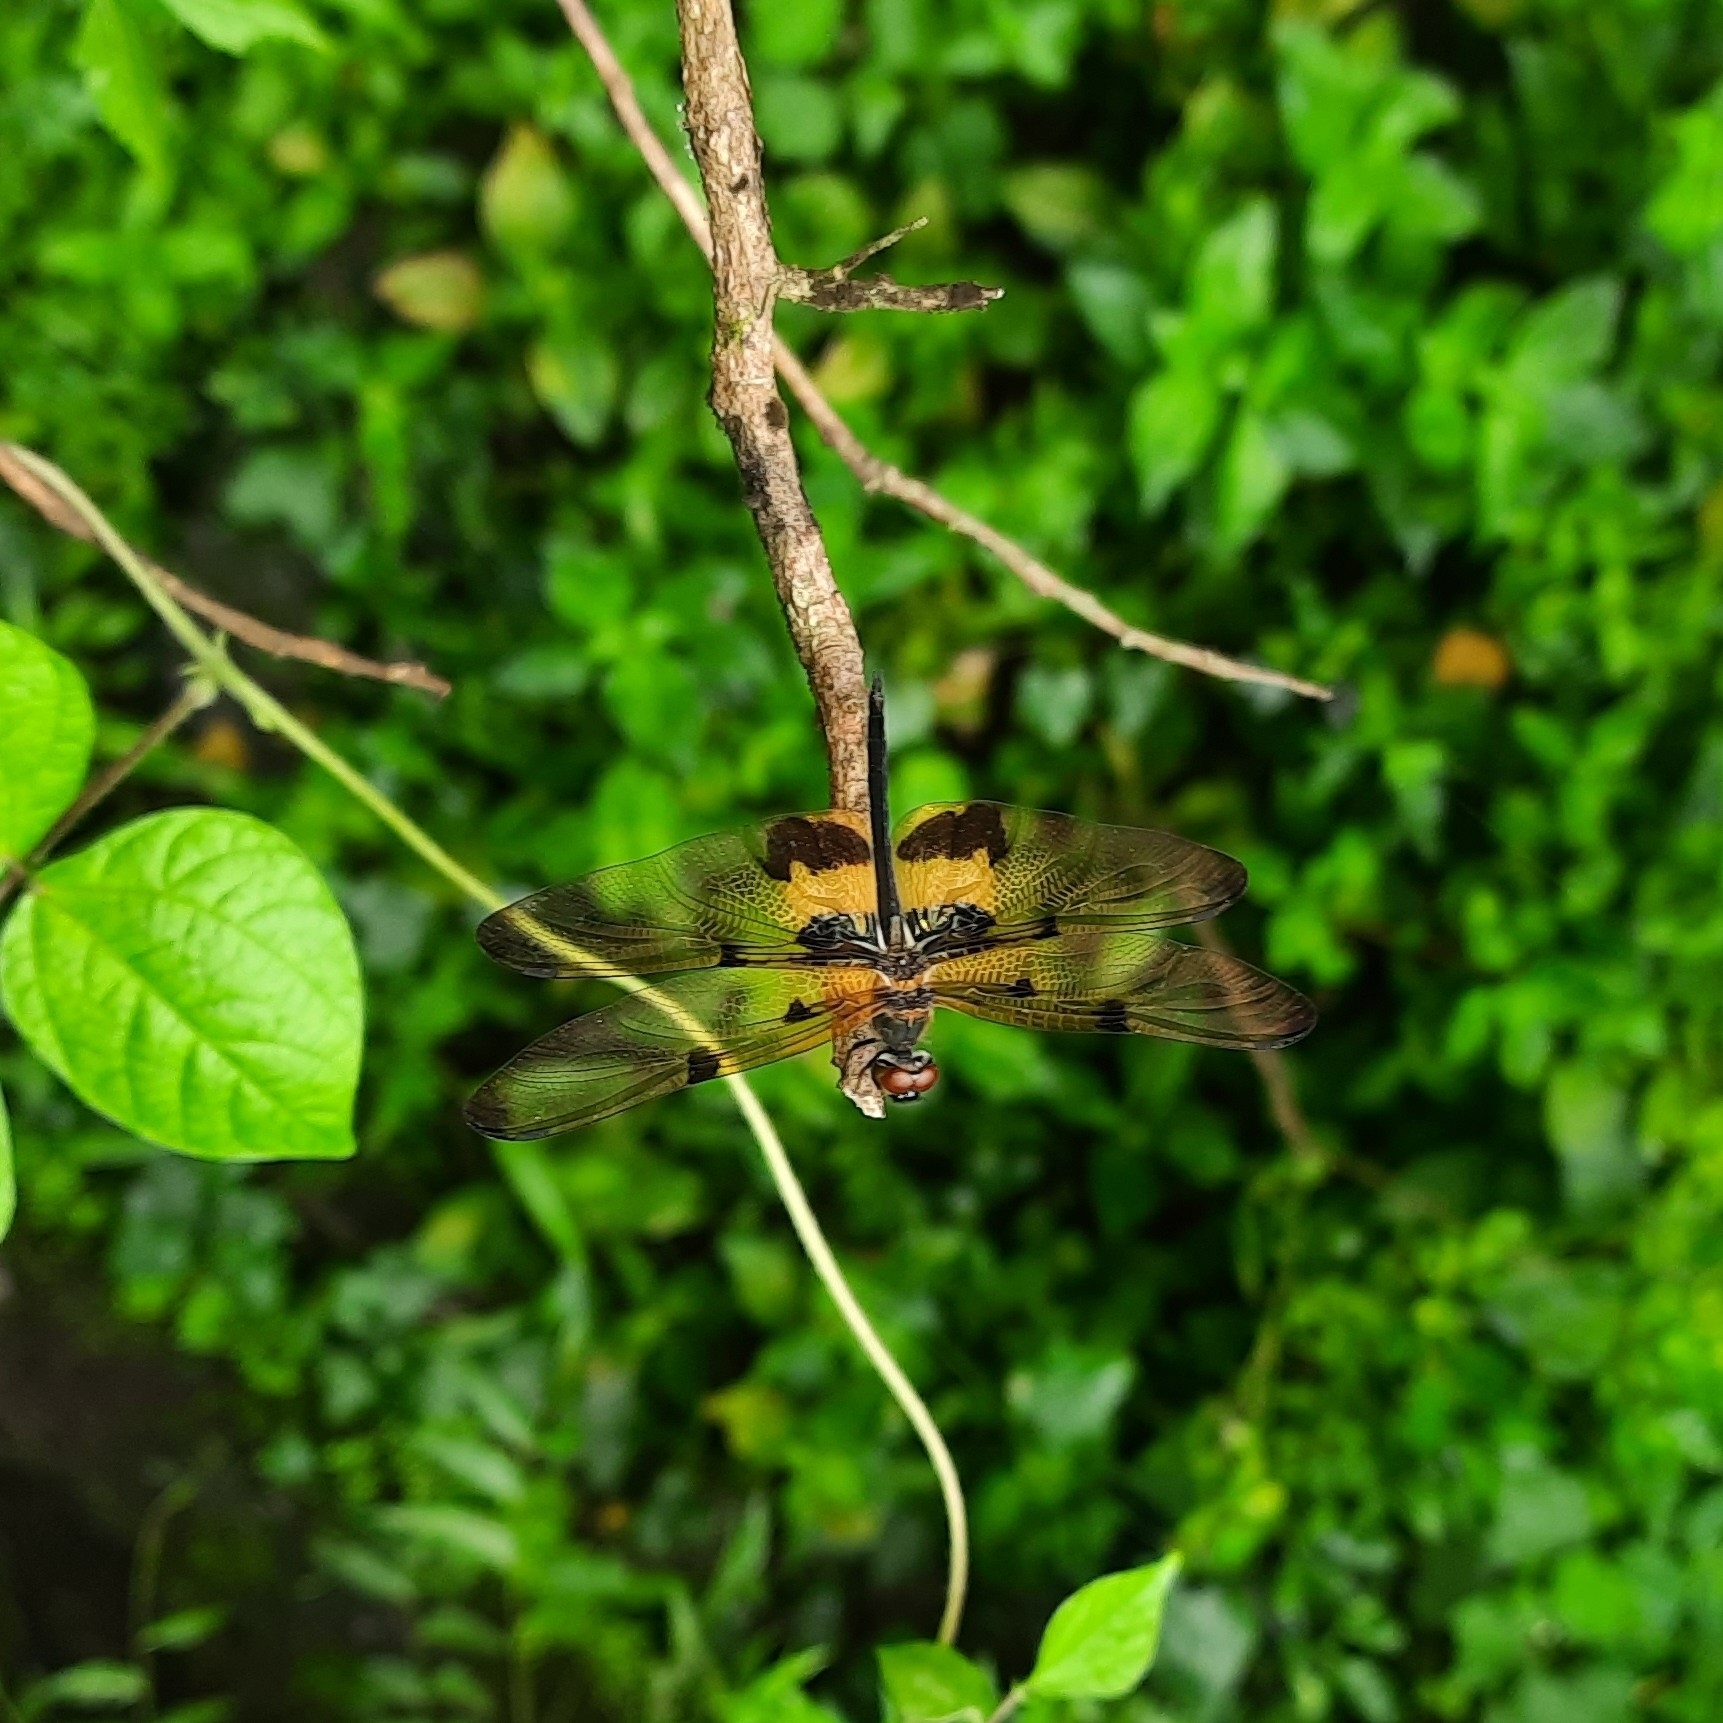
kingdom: Animalia
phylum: Arthropoda
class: Insecta
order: Odonata
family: Libellulidae
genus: Rhyothemis
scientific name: Rhyothemis variegata
